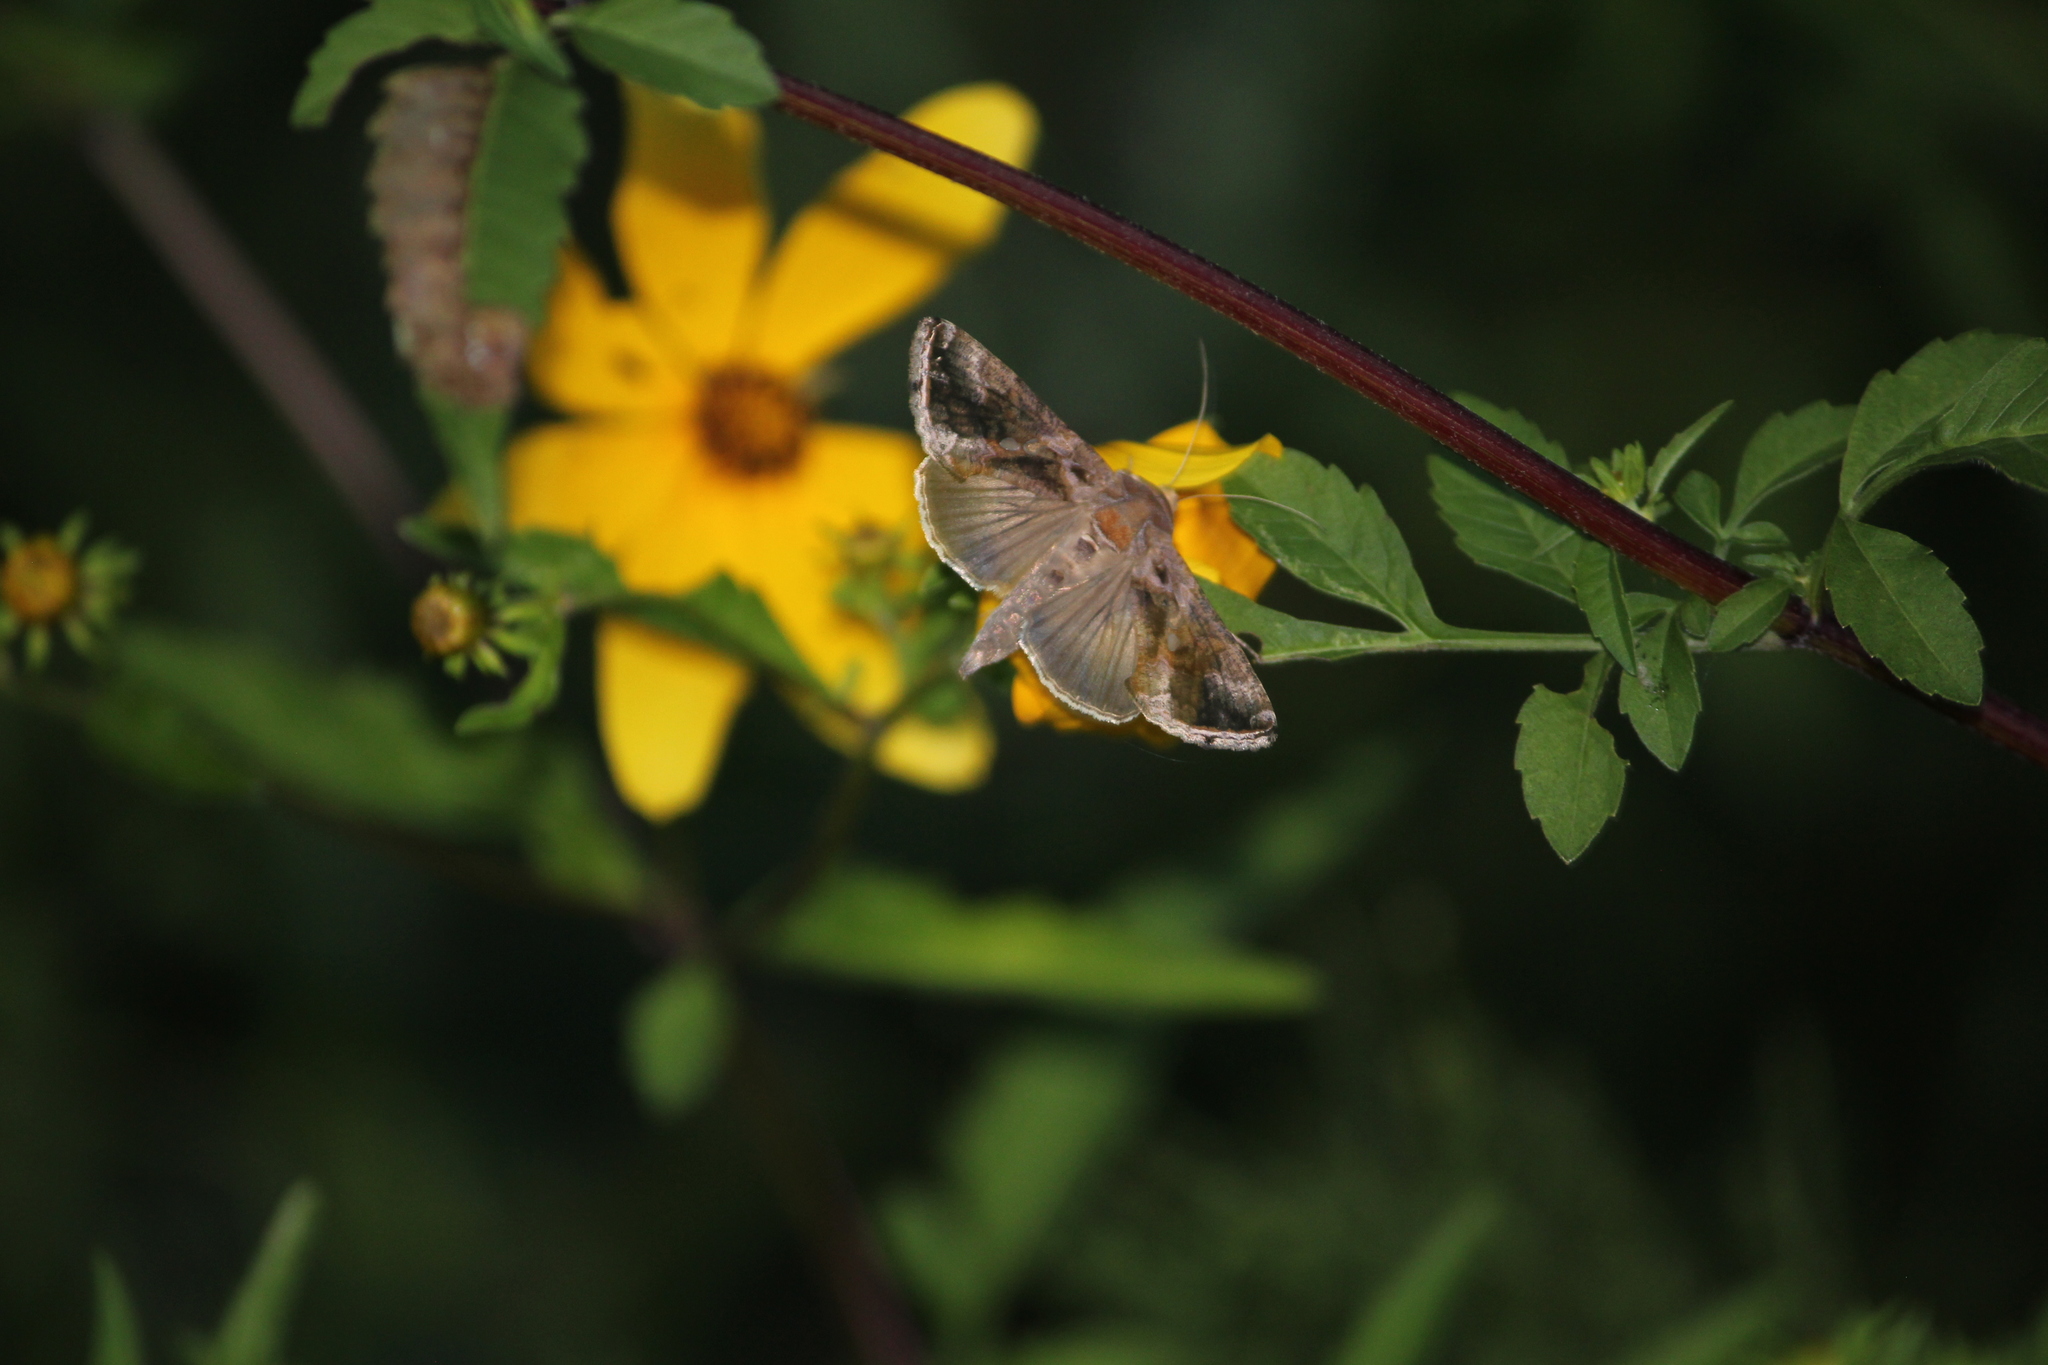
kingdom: Animalia
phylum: Arthropoda
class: Insecta
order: Lepidoptera
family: Noctuidae
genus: Chrysodeixis
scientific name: Chrysodeixis includens
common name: Cutworm moth
